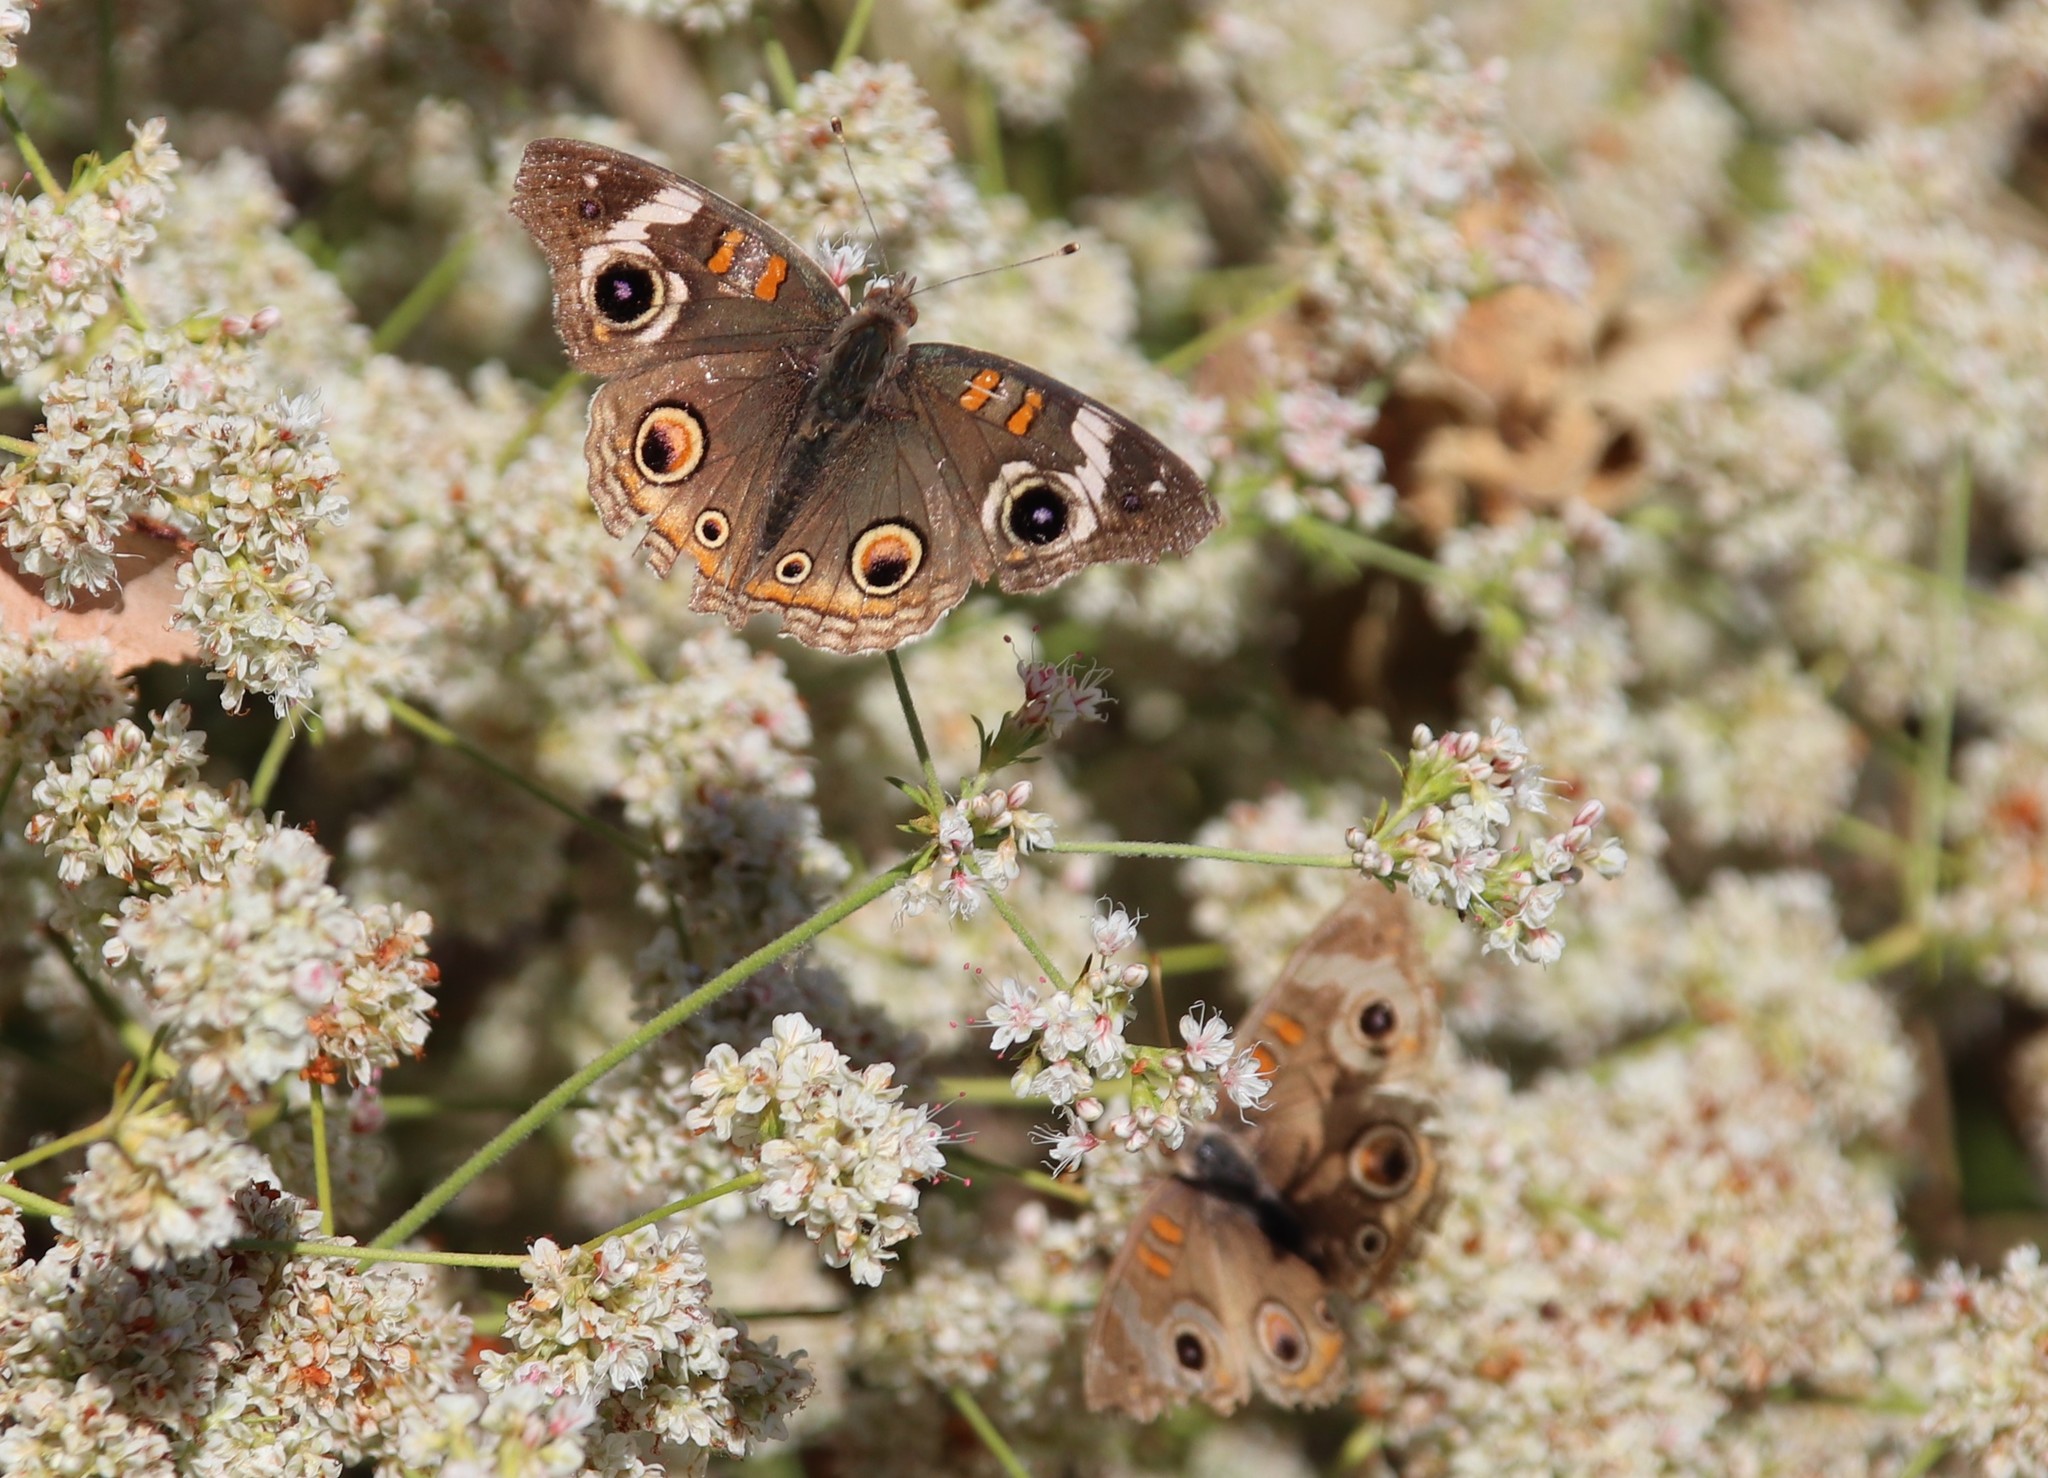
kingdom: Animalia
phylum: Arthropoda
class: Insecta
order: Lepidoptera
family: Nymphalidae
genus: Junonia
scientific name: Junonia grisea
